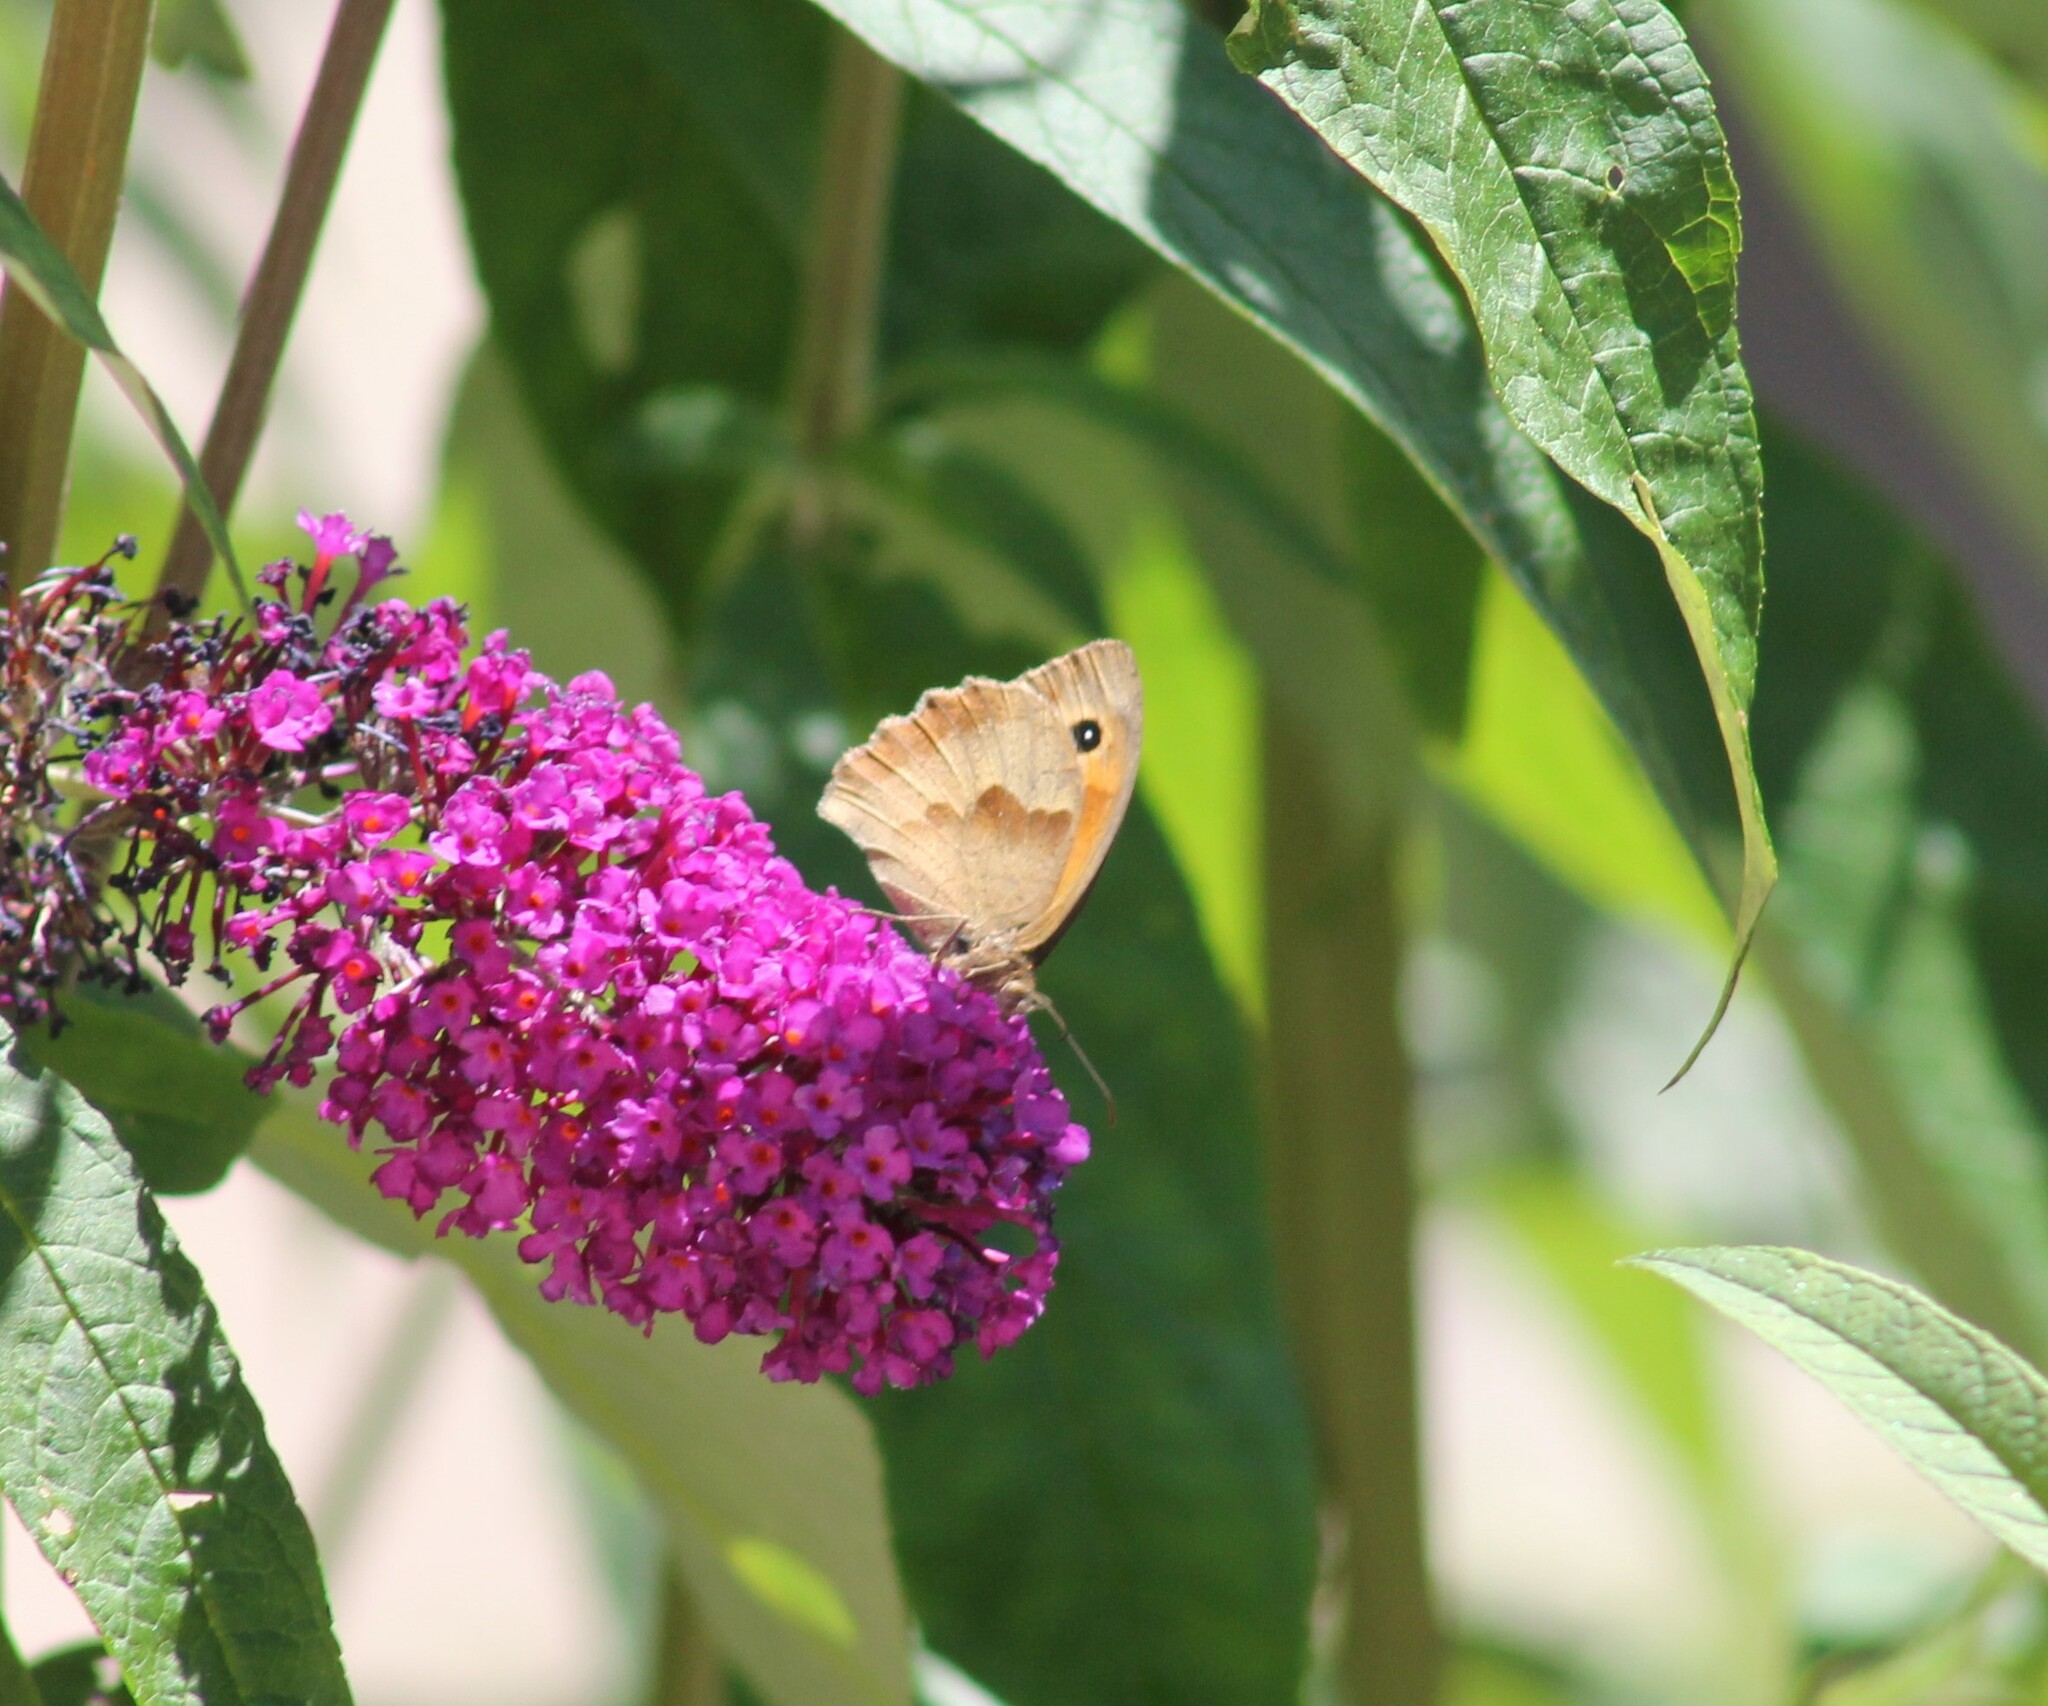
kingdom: Animalia
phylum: Arthropoda
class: Insecta
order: Lepidoptera
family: Nymphalidae
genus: Maniola
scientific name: Maniola jurtina
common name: Meadow brown
